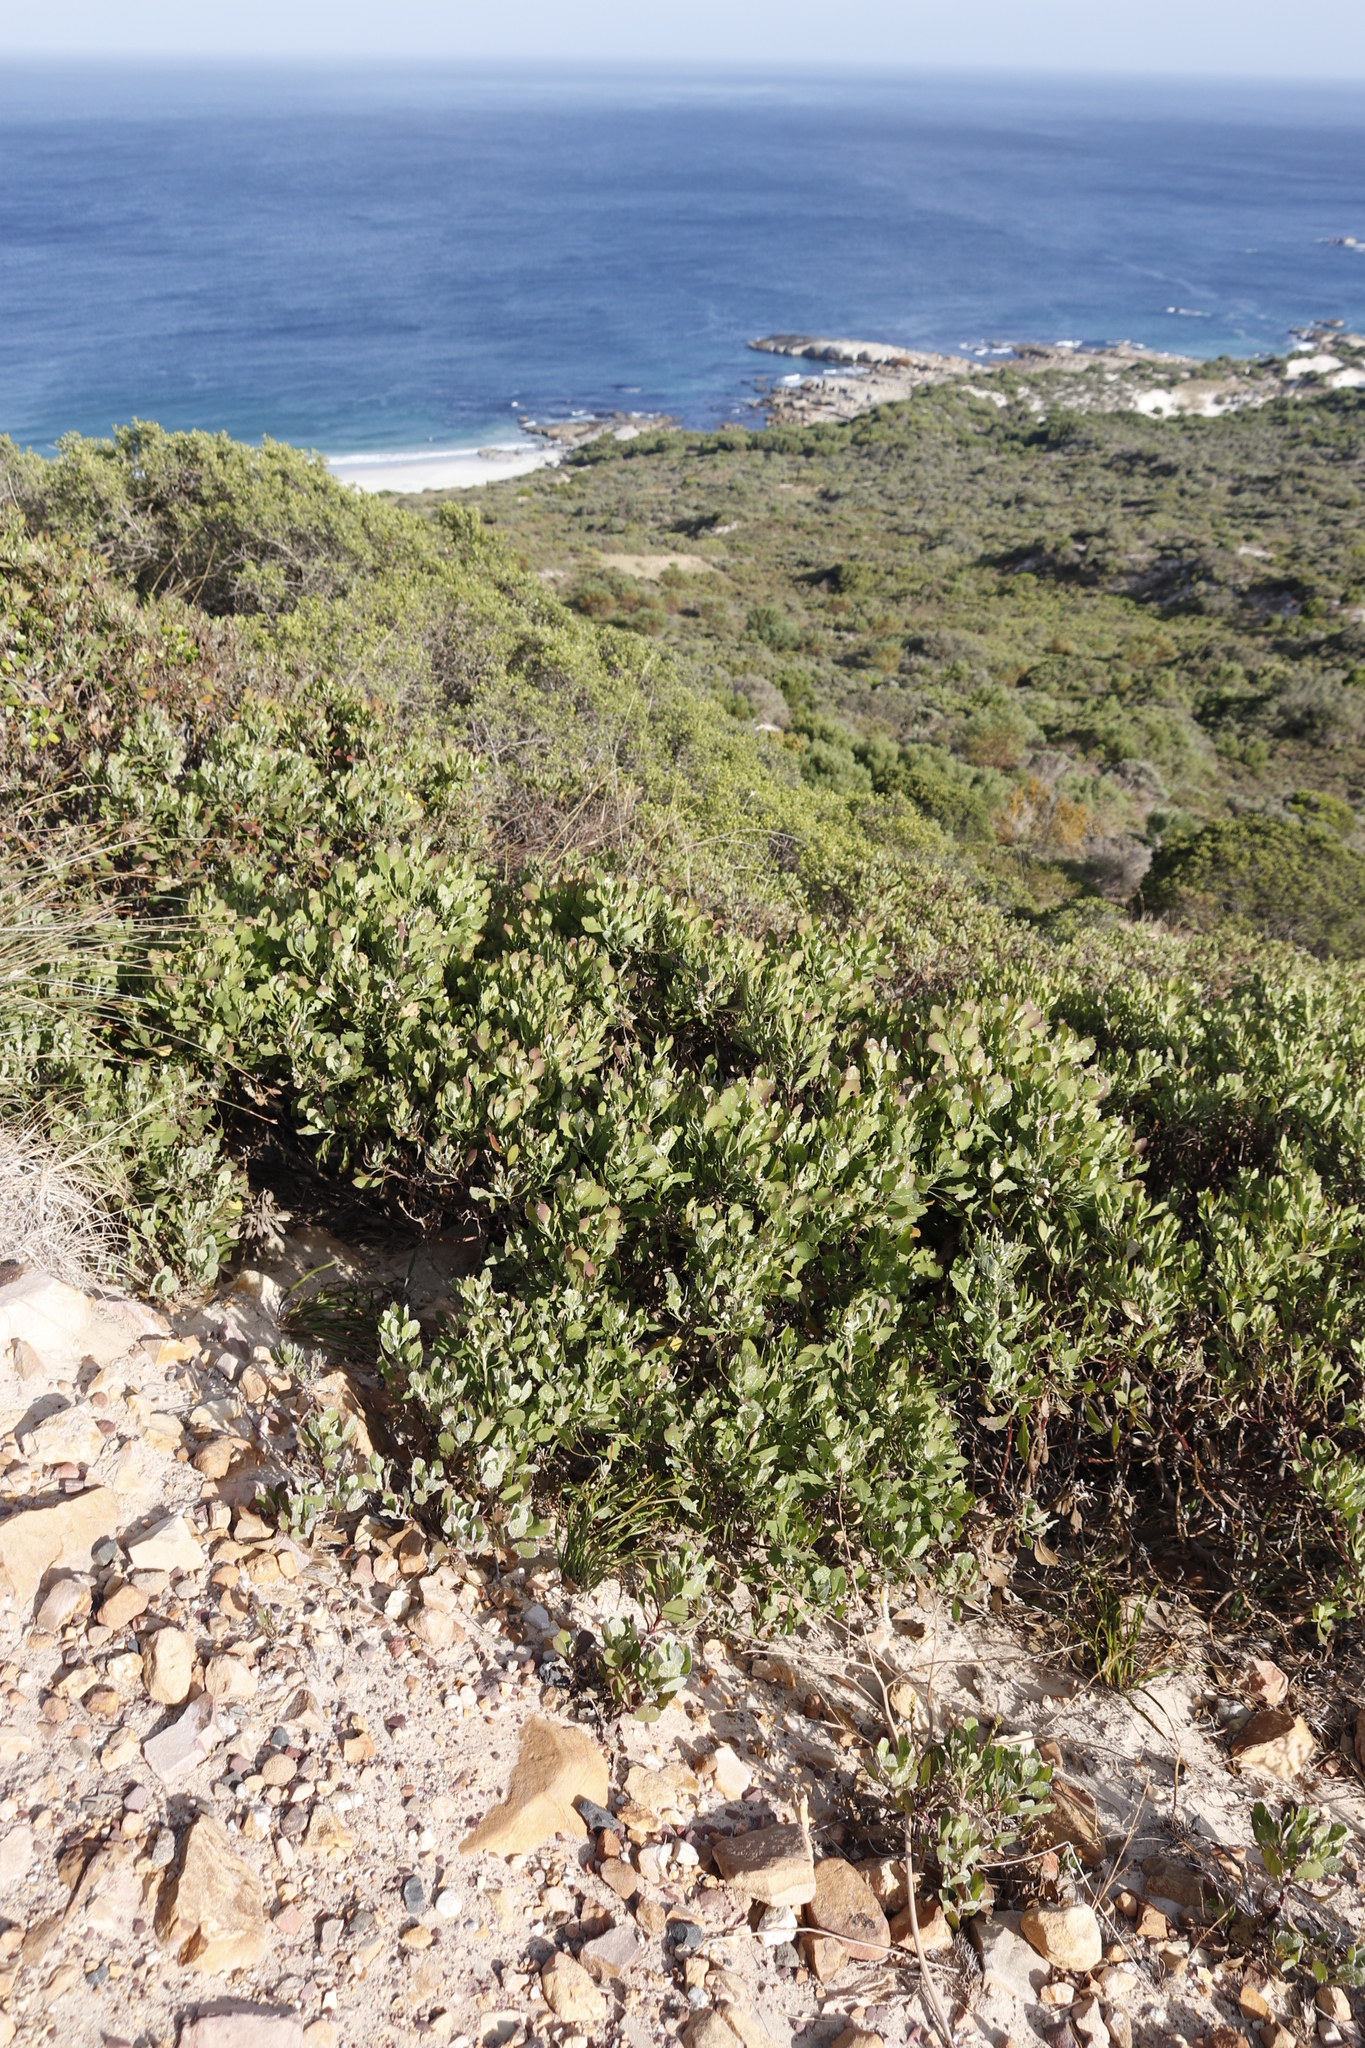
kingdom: Plantae
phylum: Tracheophyta
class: Magnoliopsida
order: Asterales
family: Asteraceae
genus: Osteospermum
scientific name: Osteospermum moniliferum
